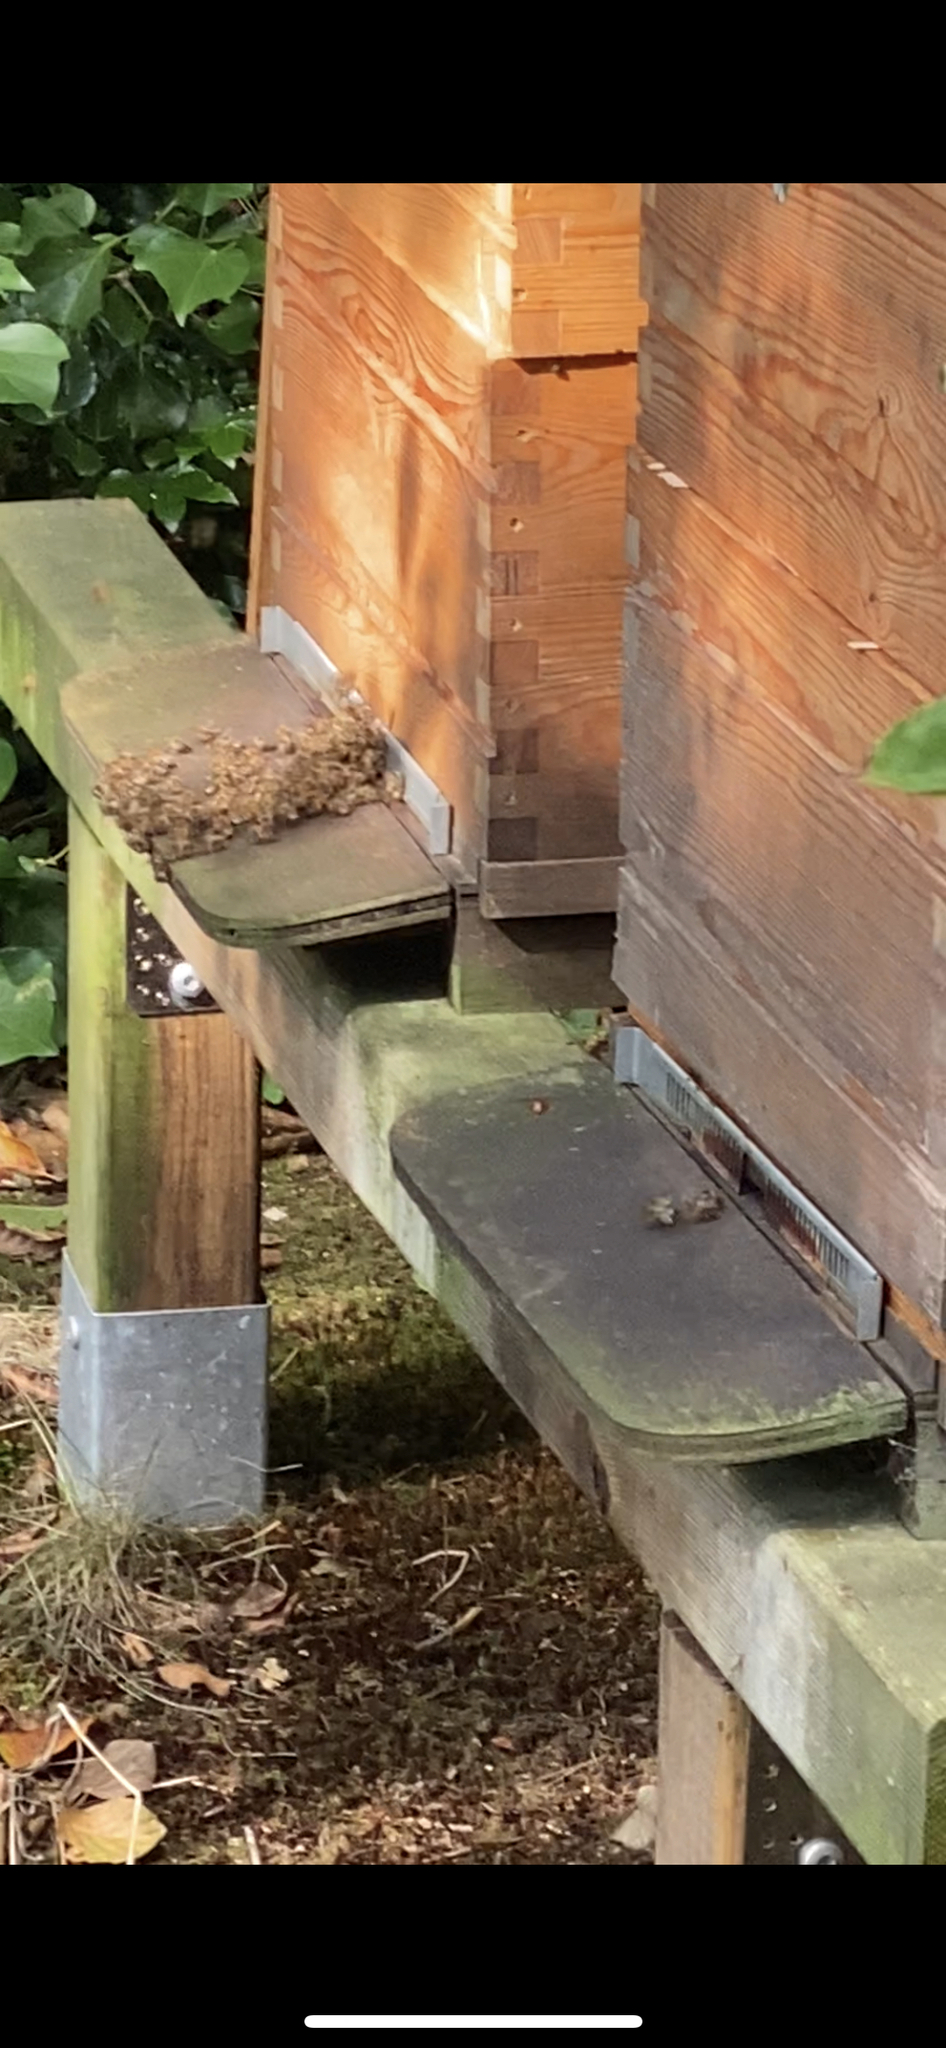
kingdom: Animalia
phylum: Arthropoda
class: Insecta
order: Hymenoptera
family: Vespidae
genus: Vespa
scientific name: Vespa velutina
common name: Asian hornet
